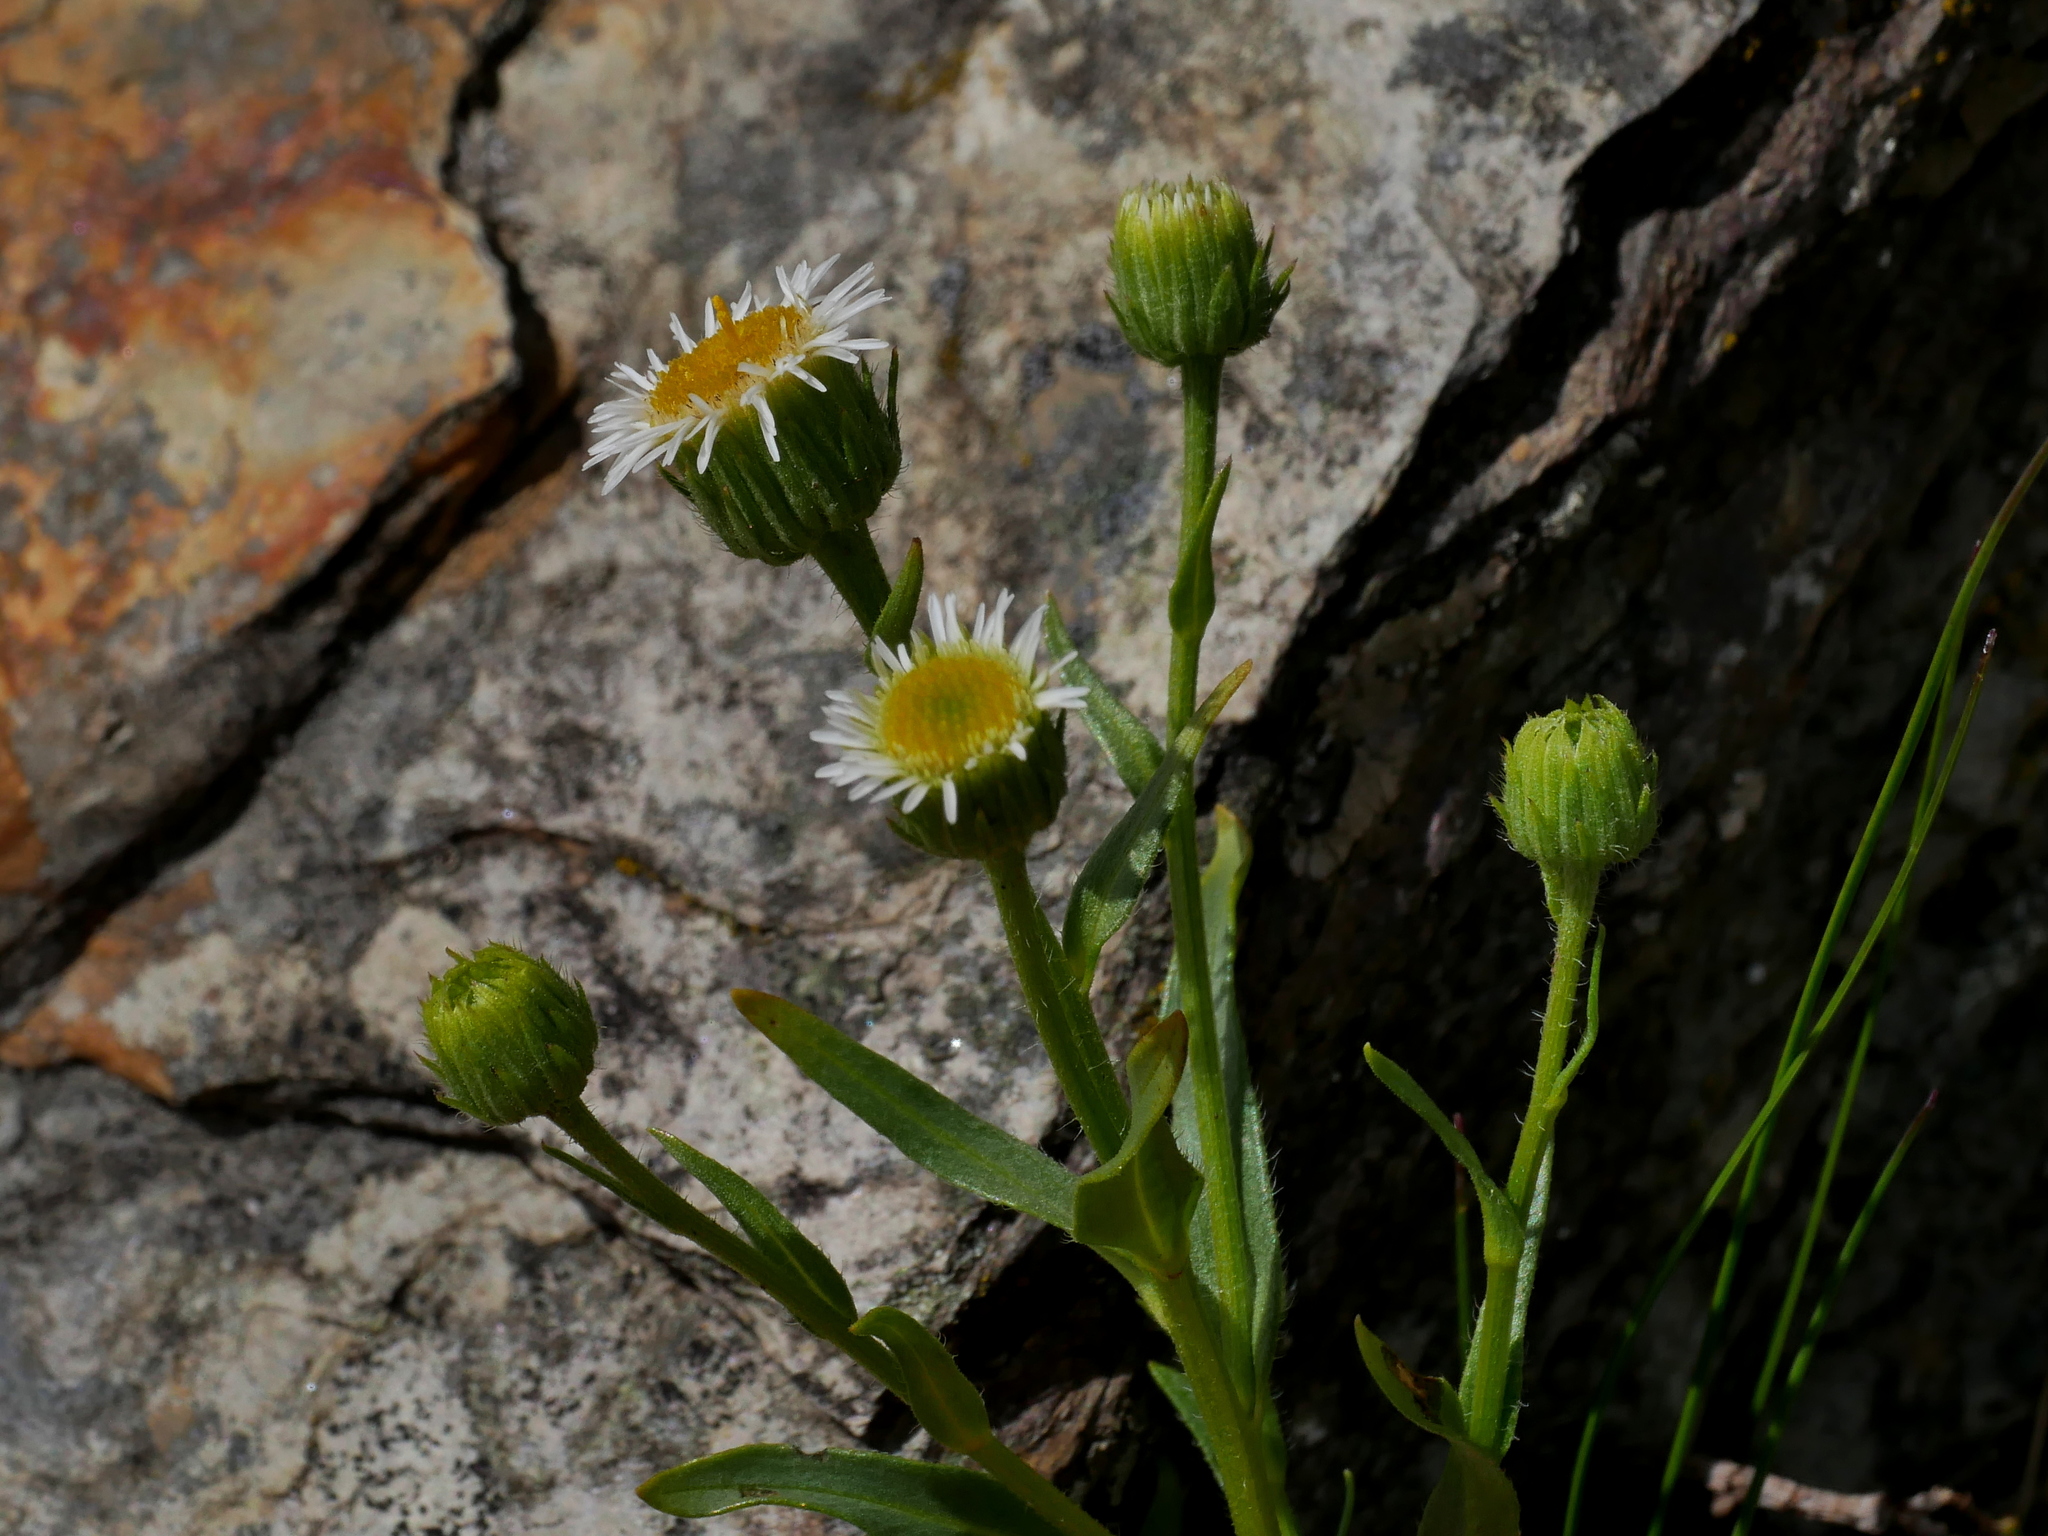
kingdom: Plantae
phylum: Tracheophyta
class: Magnoliopsida
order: Asterales
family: Asteraceae
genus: Erigeron
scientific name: Erigeron morrisonensis
